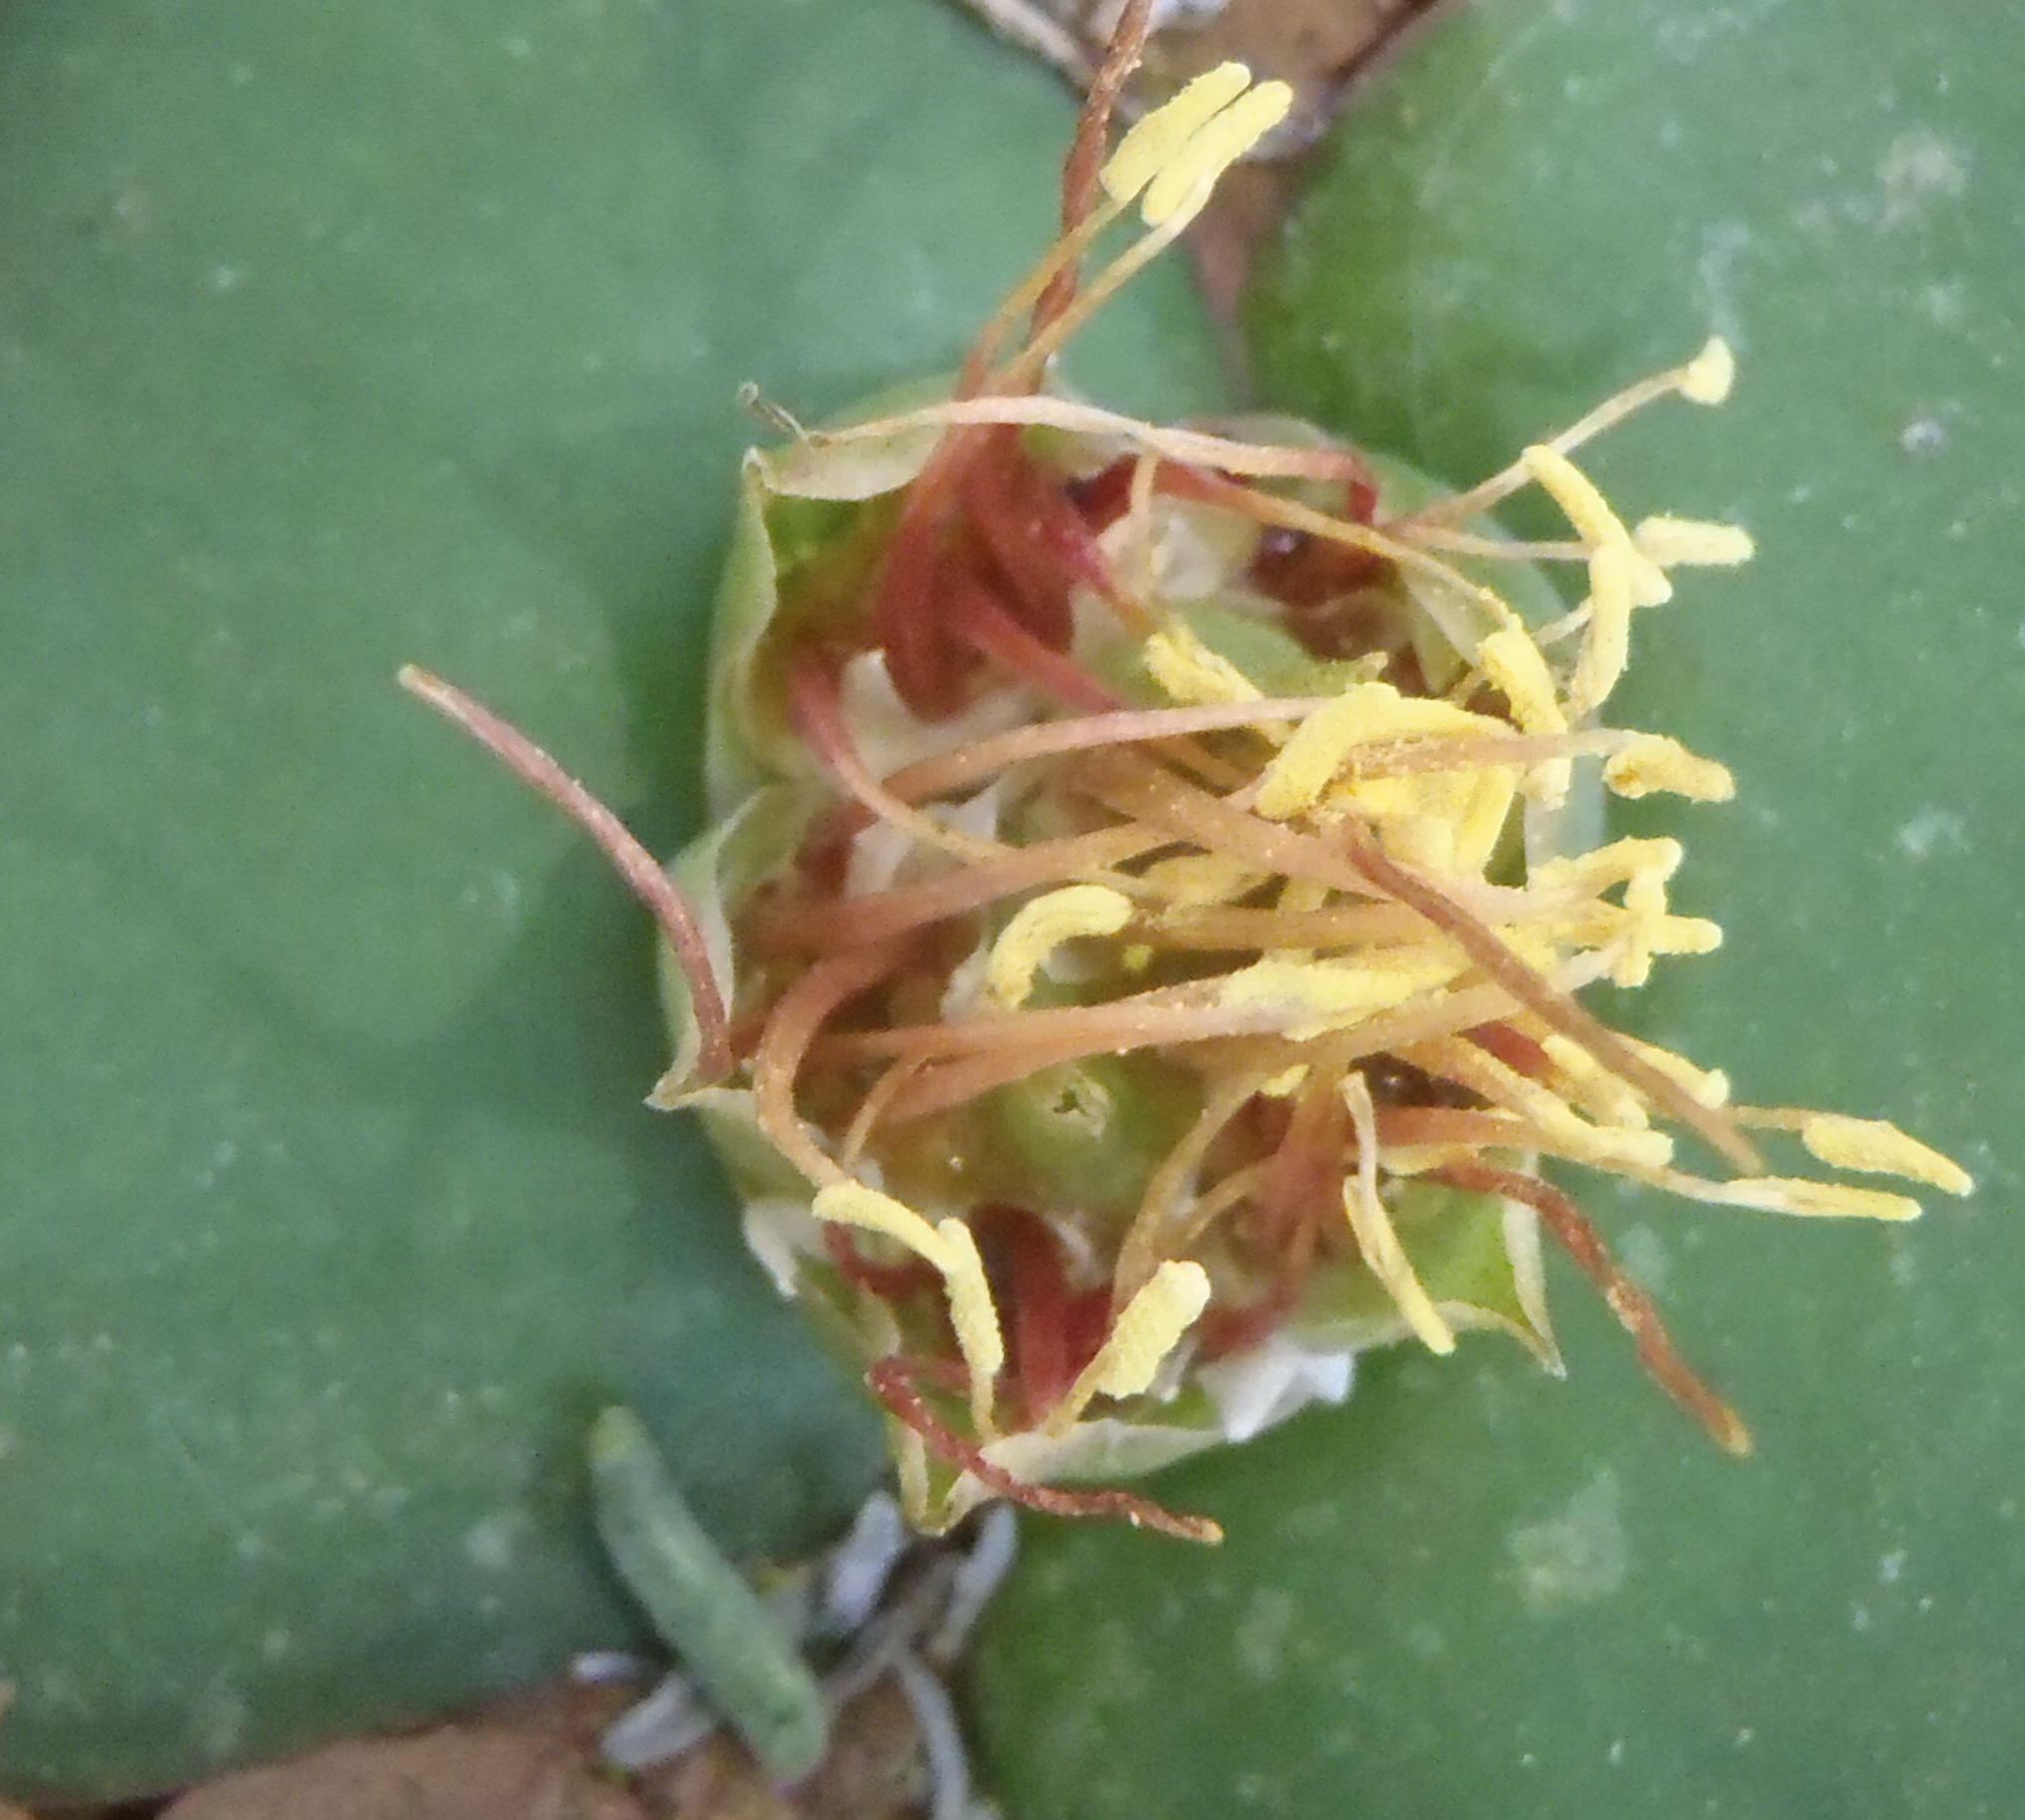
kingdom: Plantae
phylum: Tracheophyta
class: Liliopsida
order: Asparagales
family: Asparagaceae
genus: Massonia
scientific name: Massonia depressa
